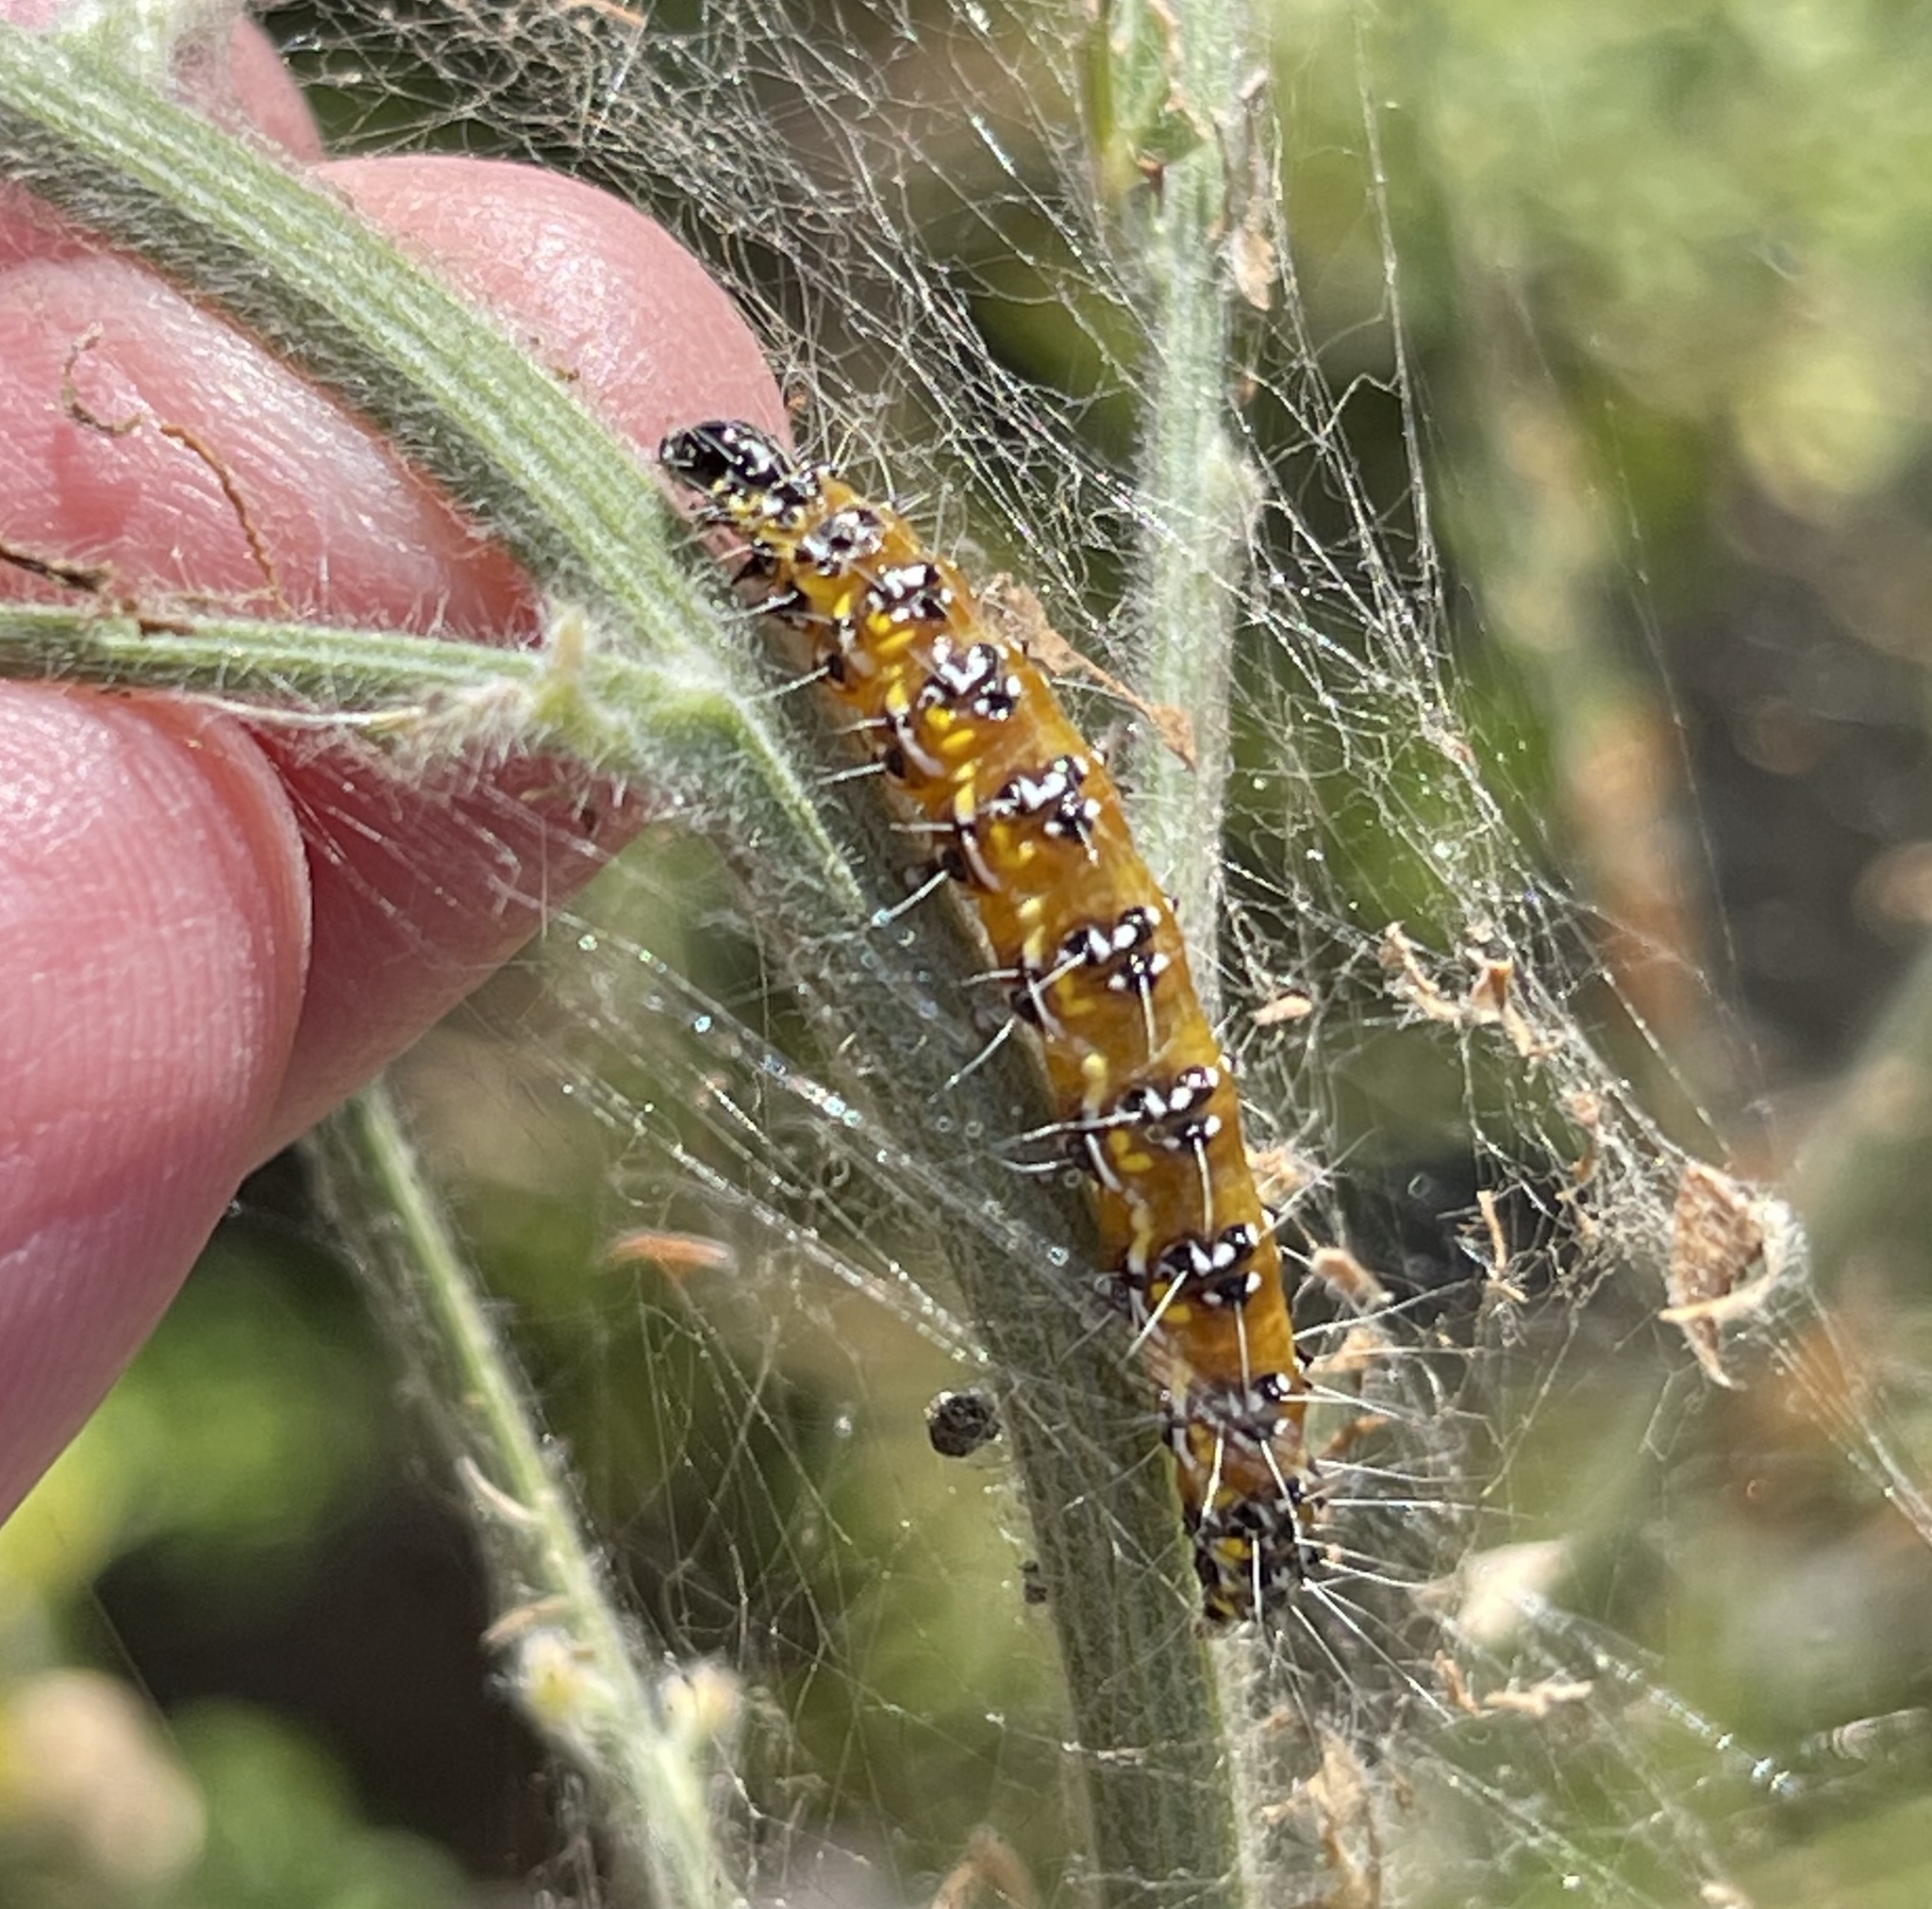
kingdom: Animalia
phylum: Arthropoda
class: Insecta
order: Lepidoptera
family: Crambidae
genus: Uresiphita
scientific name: Uresiphita reversalis
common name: Genista broom moth
